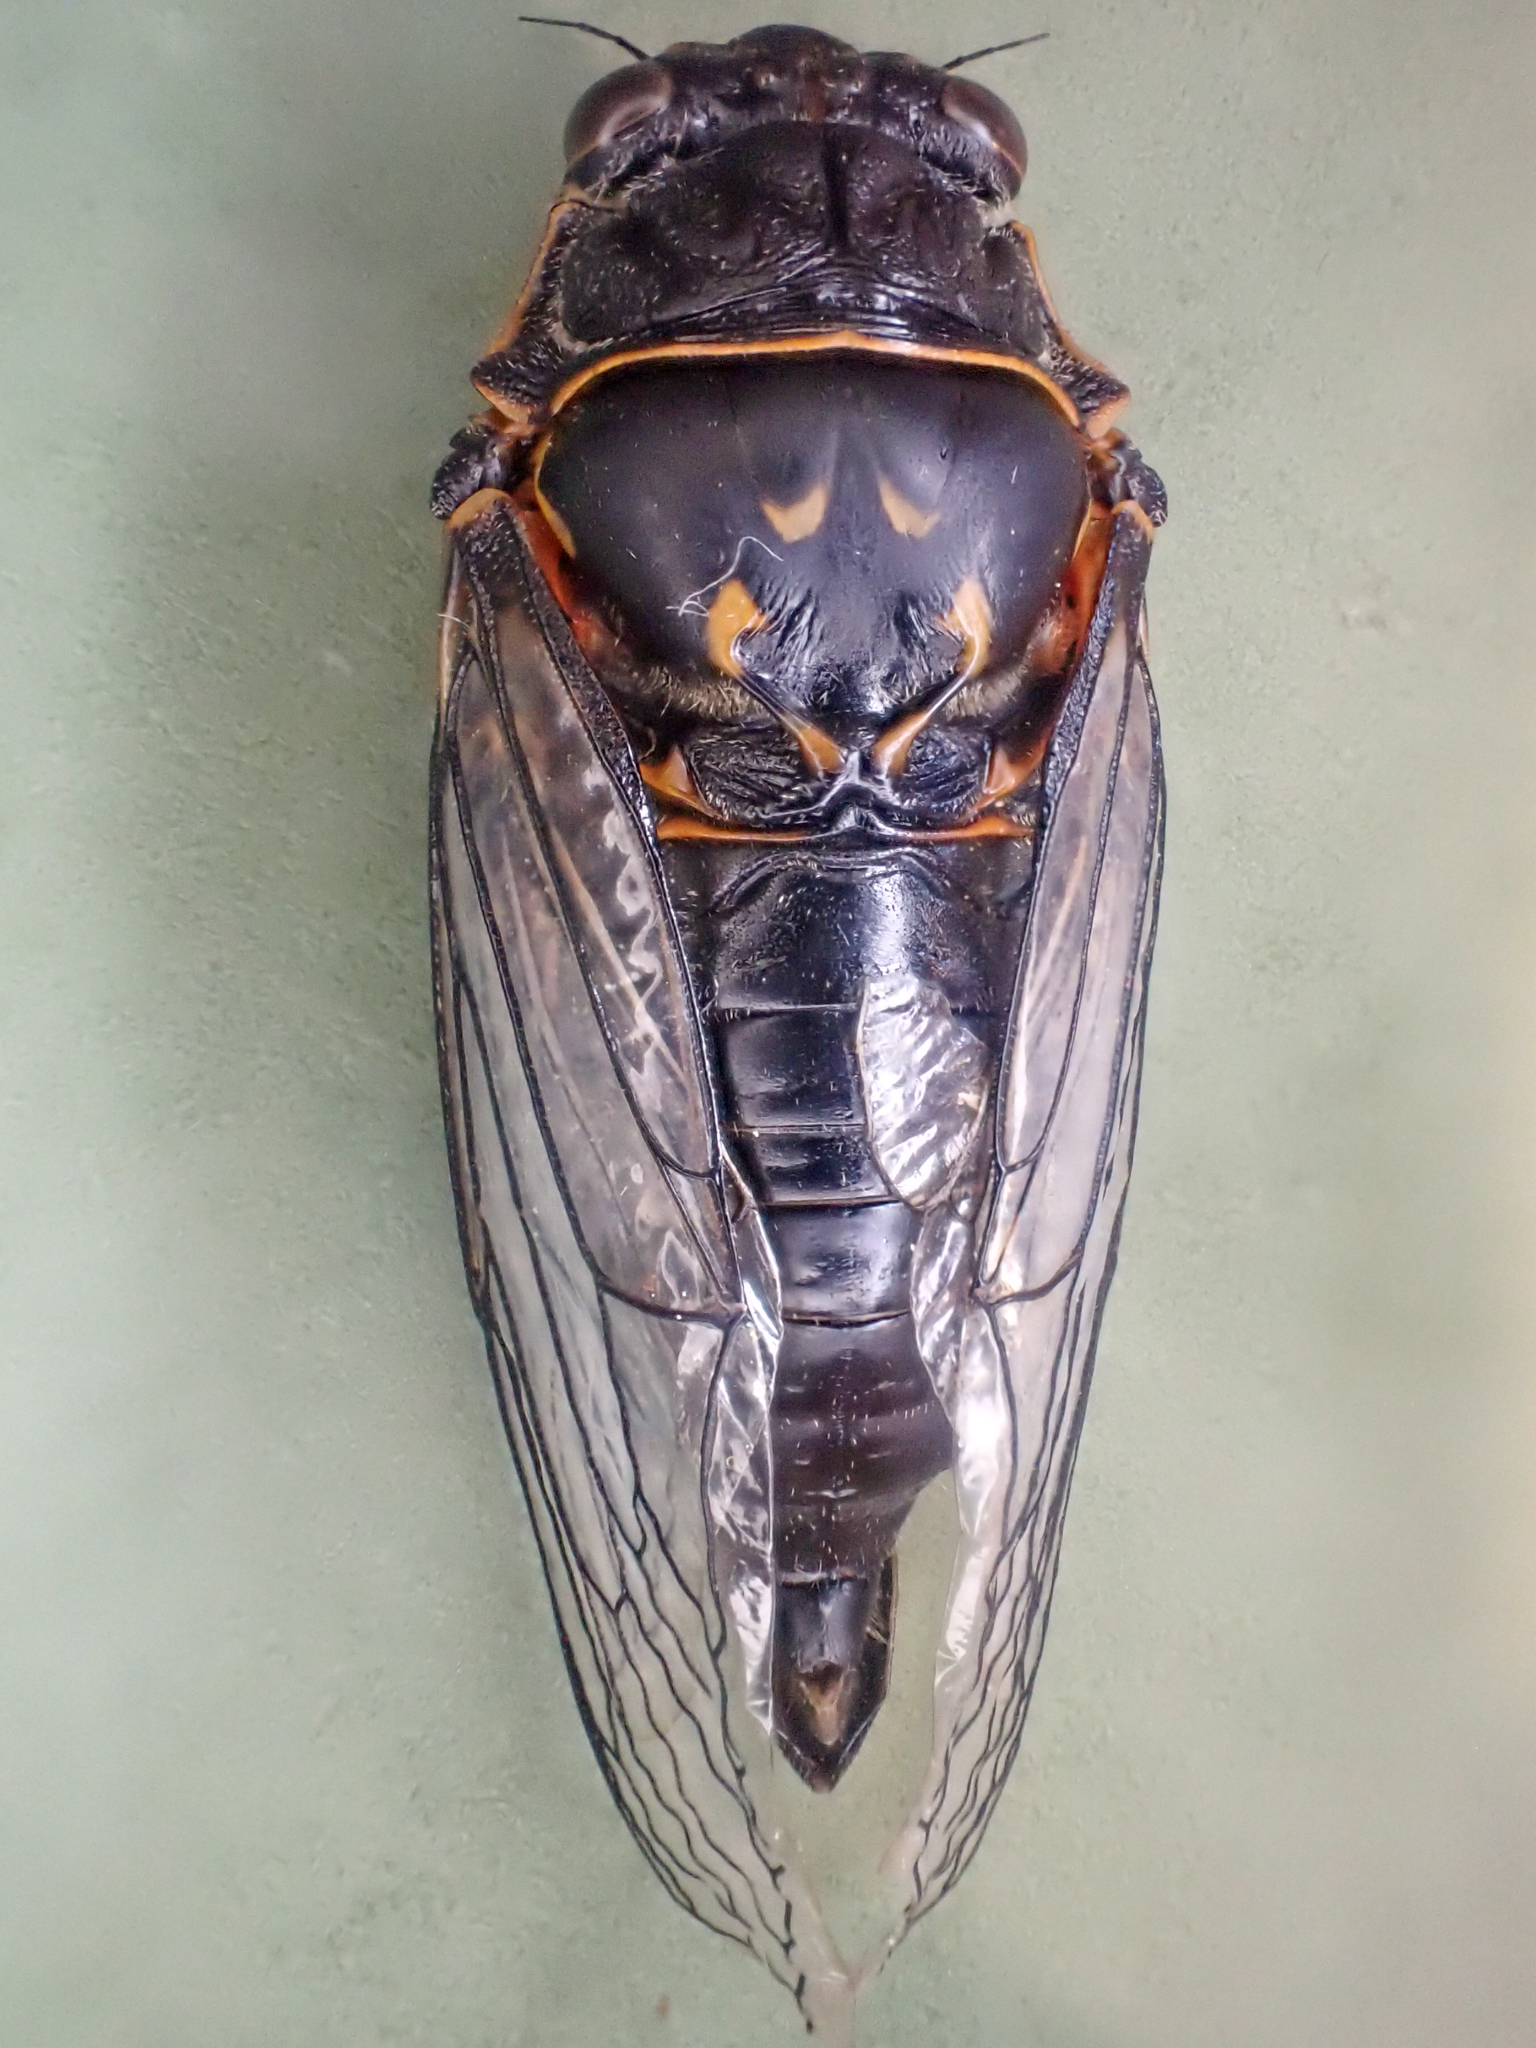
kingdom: Animalia
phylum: Arthropoda
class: Insecta
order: Hemiptera
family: Cicadidae
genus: Okanagana
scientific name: Okanagana occidentalis
